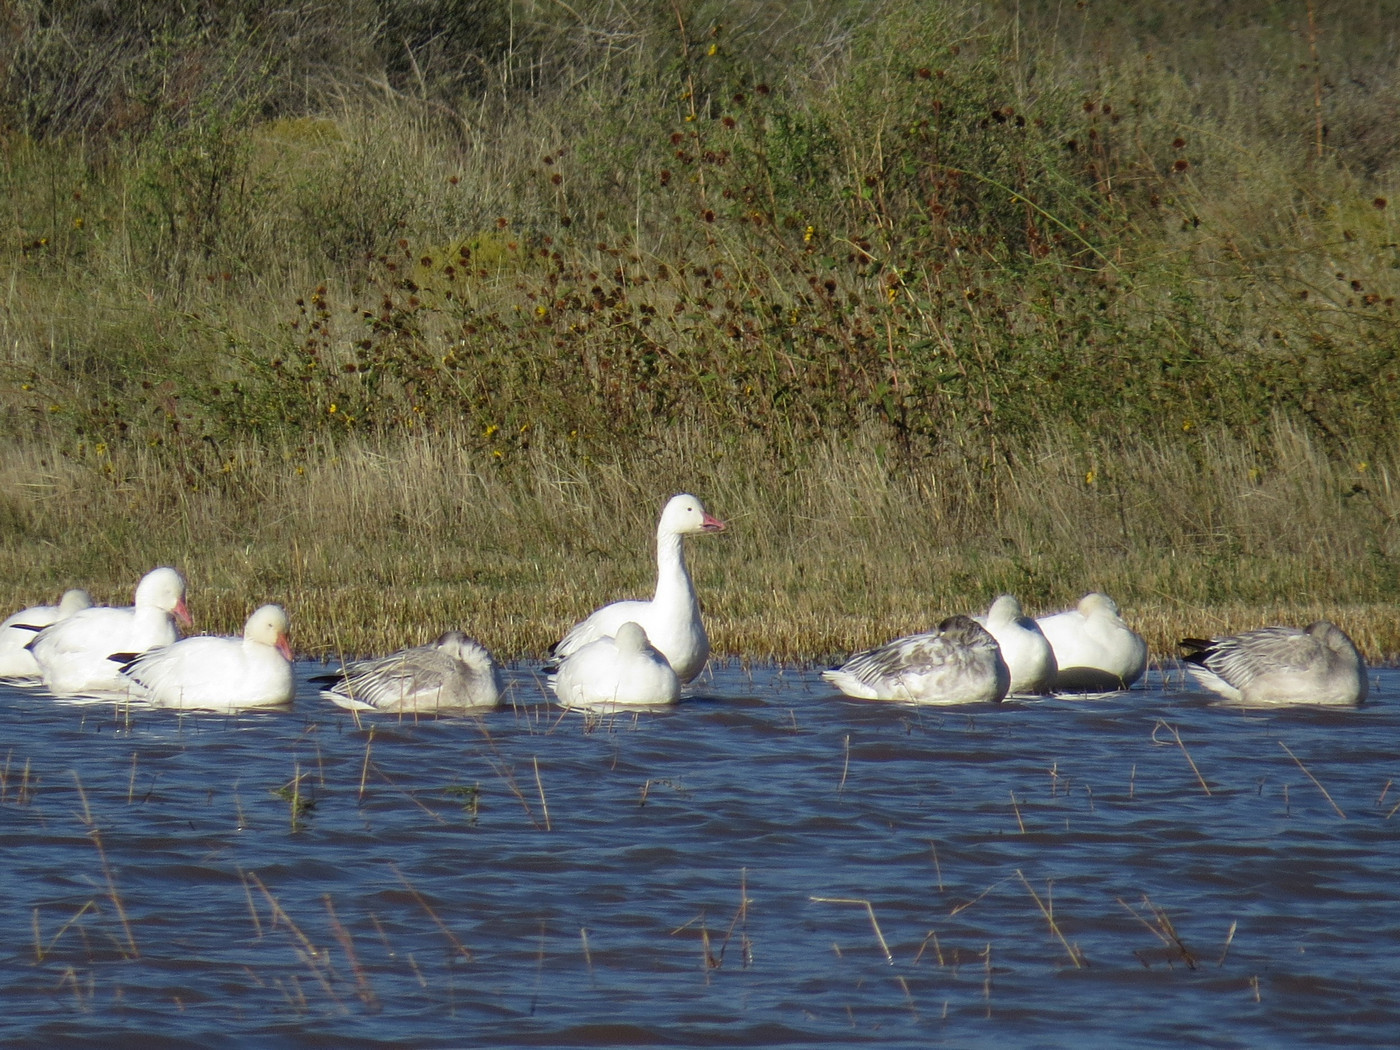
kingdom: Animalia
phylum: Chordata
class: Aves
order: Anseriformes
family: Anatidae
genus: Anser
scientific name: Anser caerulescens
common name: Snow goose
